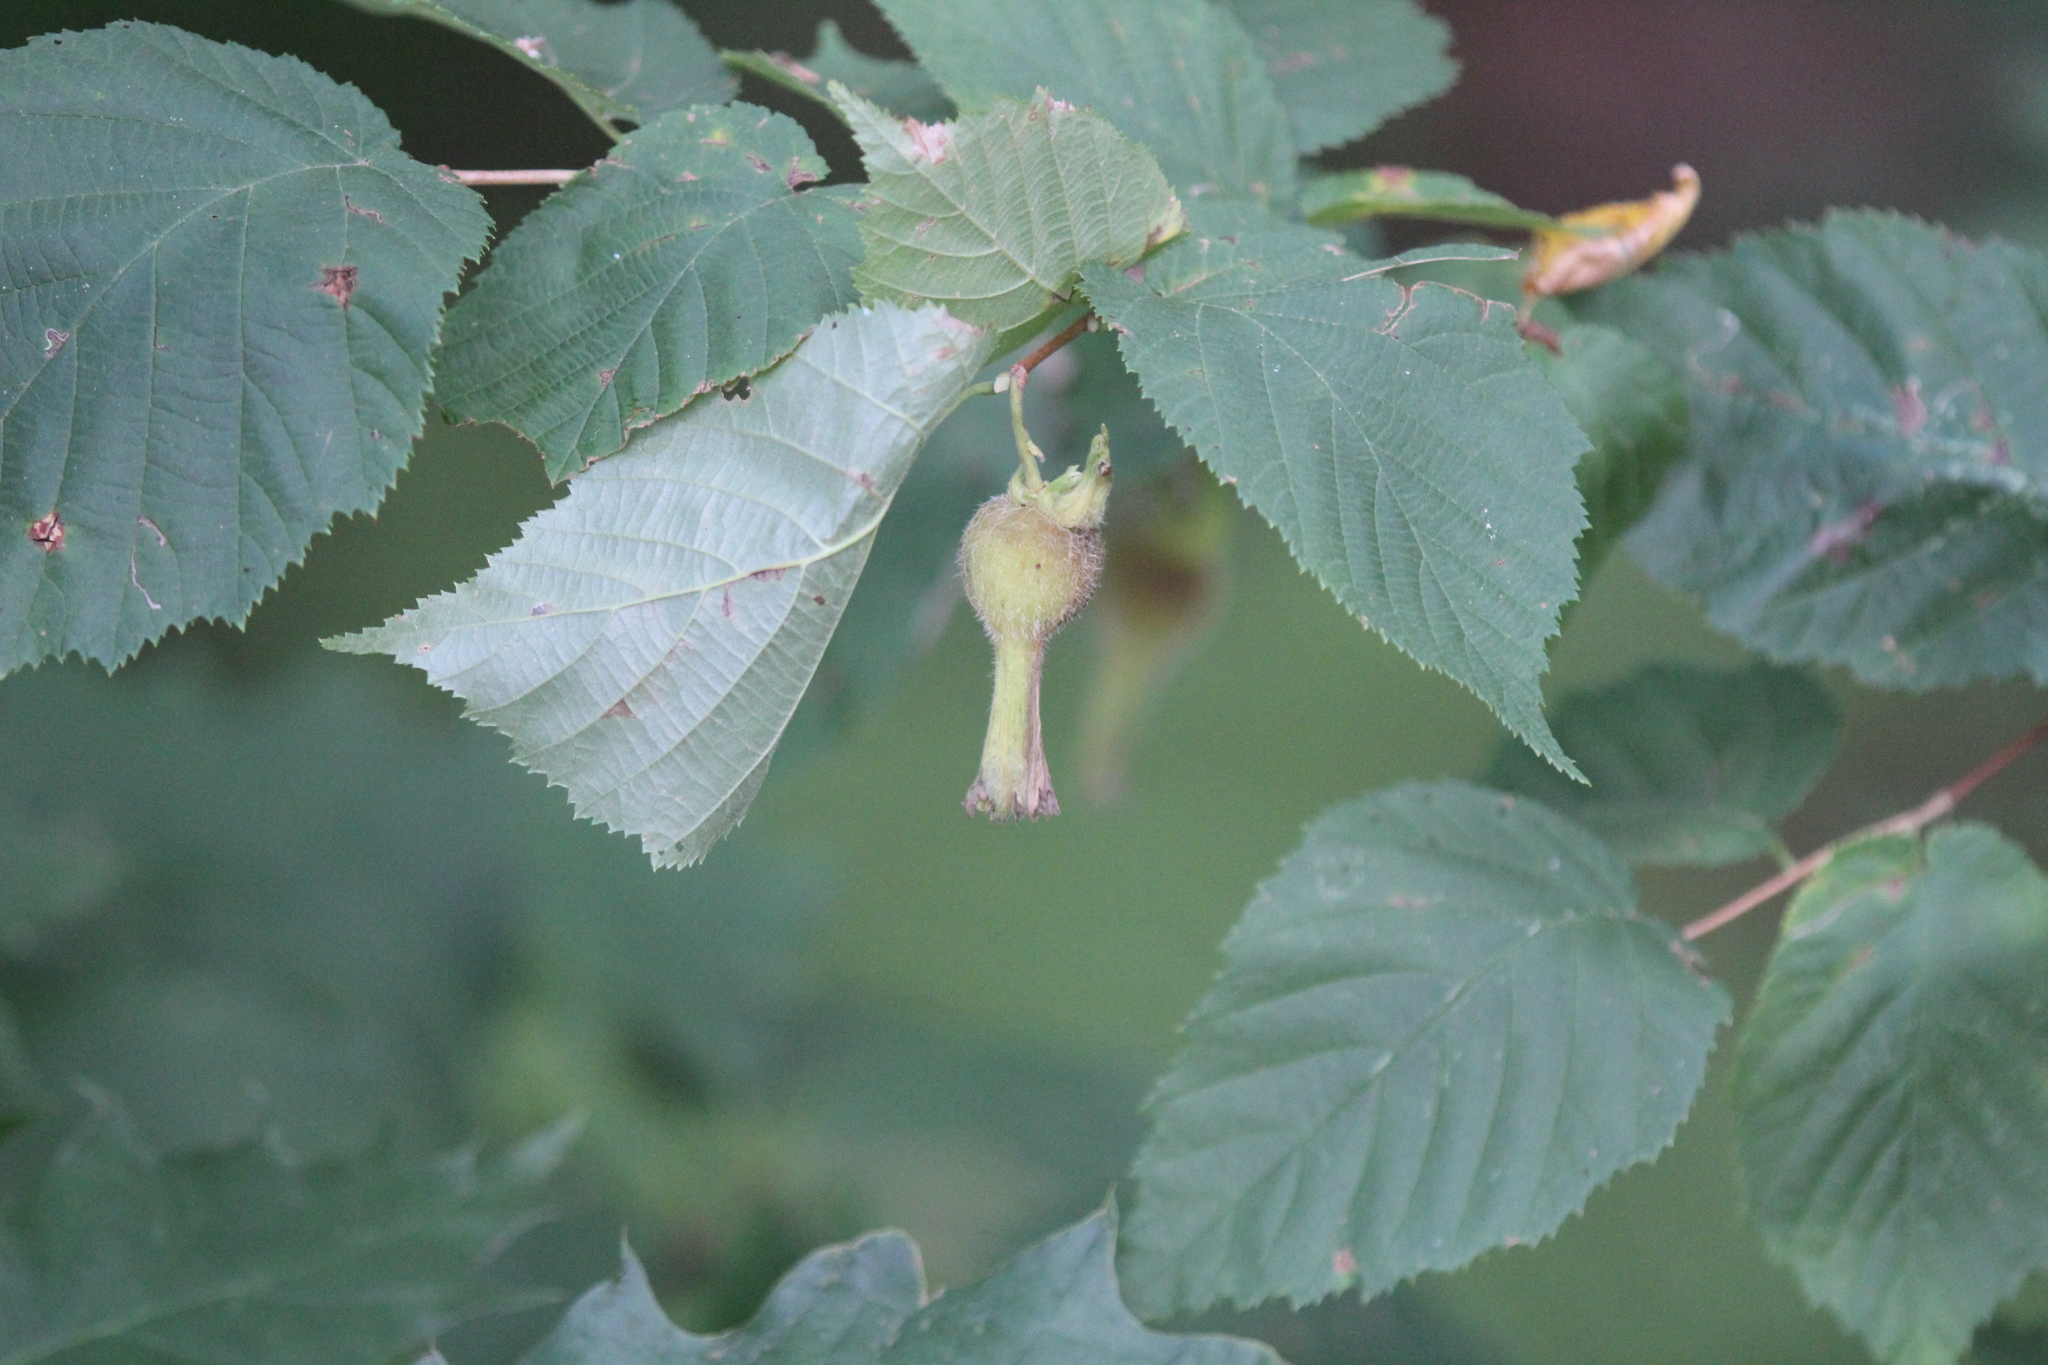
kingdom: Plantae
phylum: Tracheophyta
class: Magnoliopsida
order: Fagales
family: Betulaceae
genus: Corylus
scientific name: Corylus cornuta
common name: Beaked hazel
